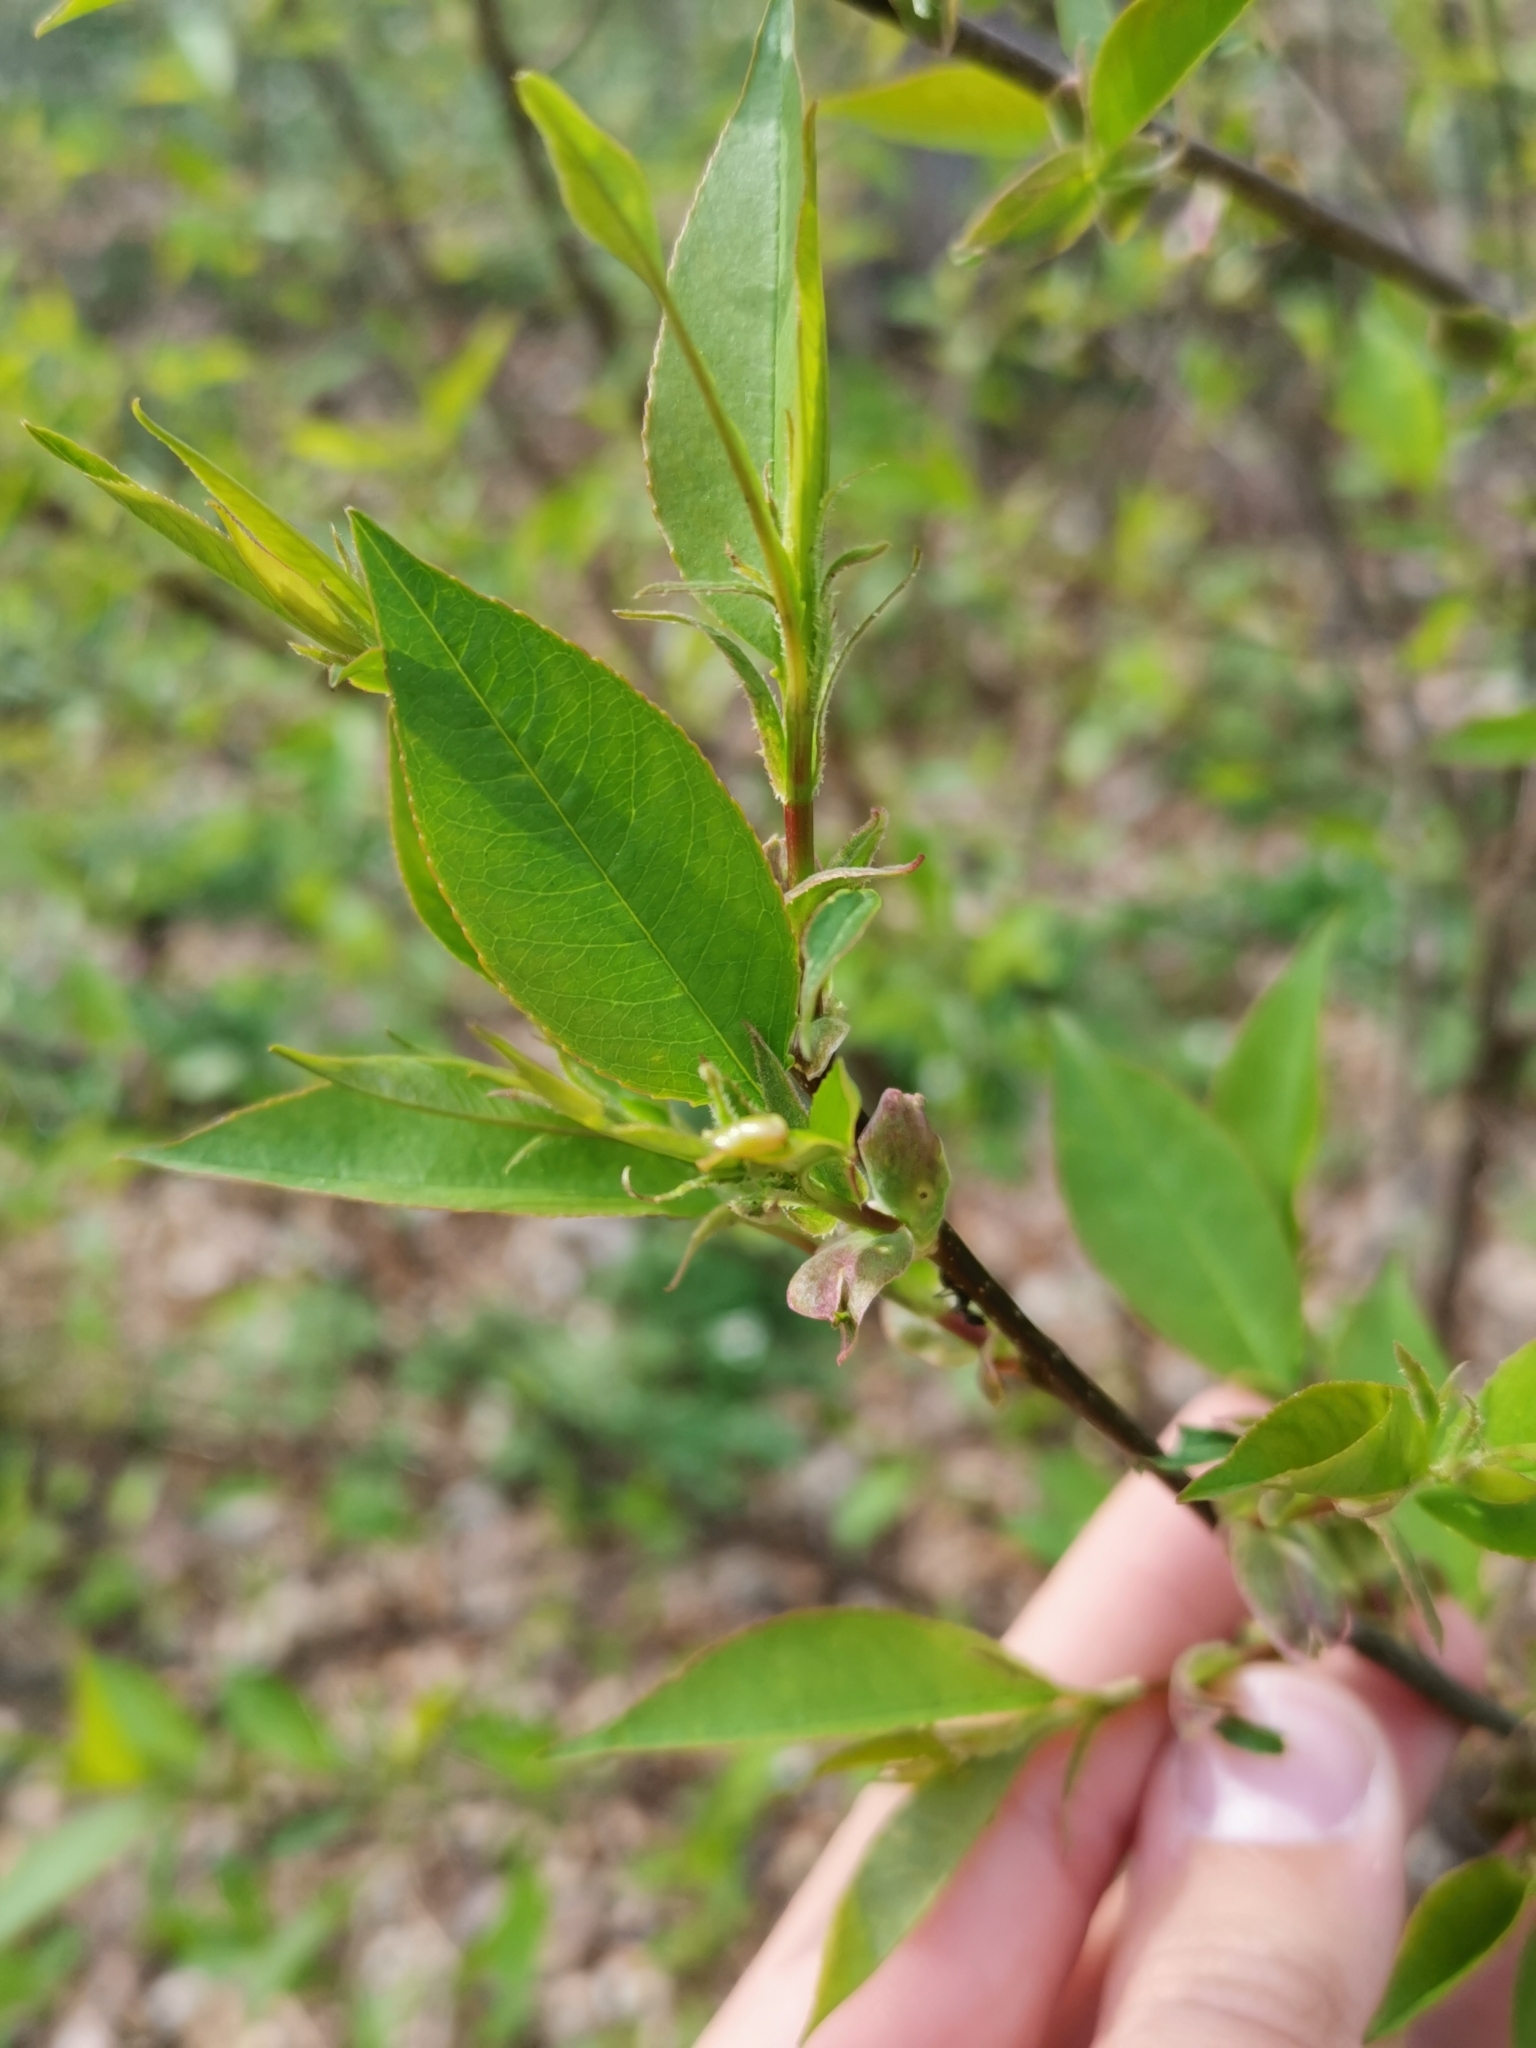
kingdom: Plantae
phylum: Tracheophyta
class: Magnoliopsida
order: Rosales
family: Rosaceae
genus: Prunus
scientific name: Prunus serotina
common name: Black cherry
